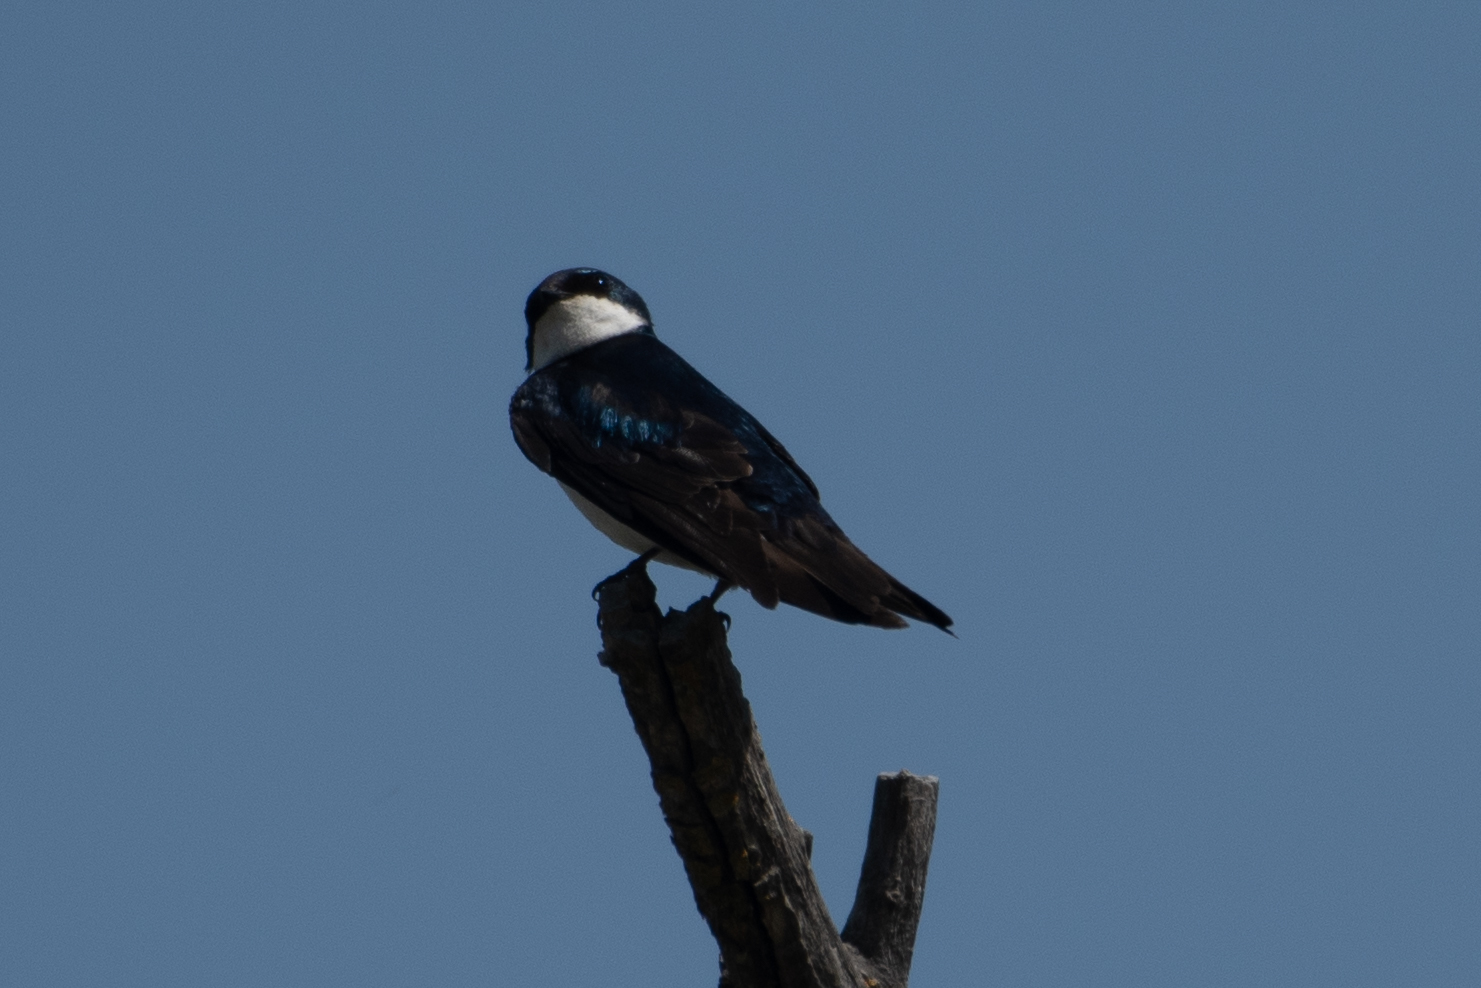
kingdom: Animalia
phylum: Chordata
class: Aves
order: Passeriformes
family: Hirundinidae
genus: Tachycineta
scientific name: Tachycineta bicolor
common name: Tree swallow
